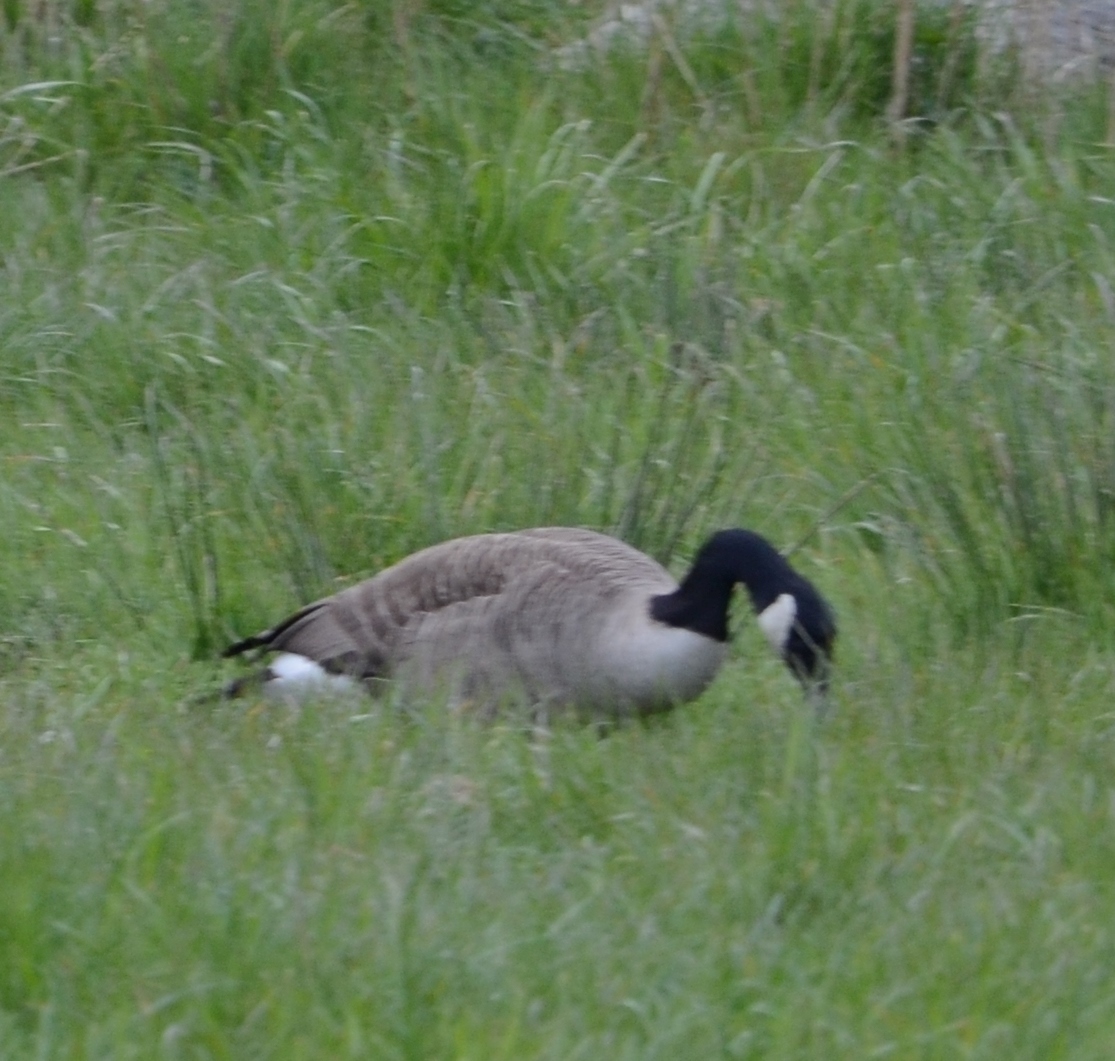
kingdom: Animalia
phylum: Chordata
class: Aves
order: Anseriformes
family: Anatidae
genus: Branta
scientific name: Branta canadensis
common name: Canada goose
